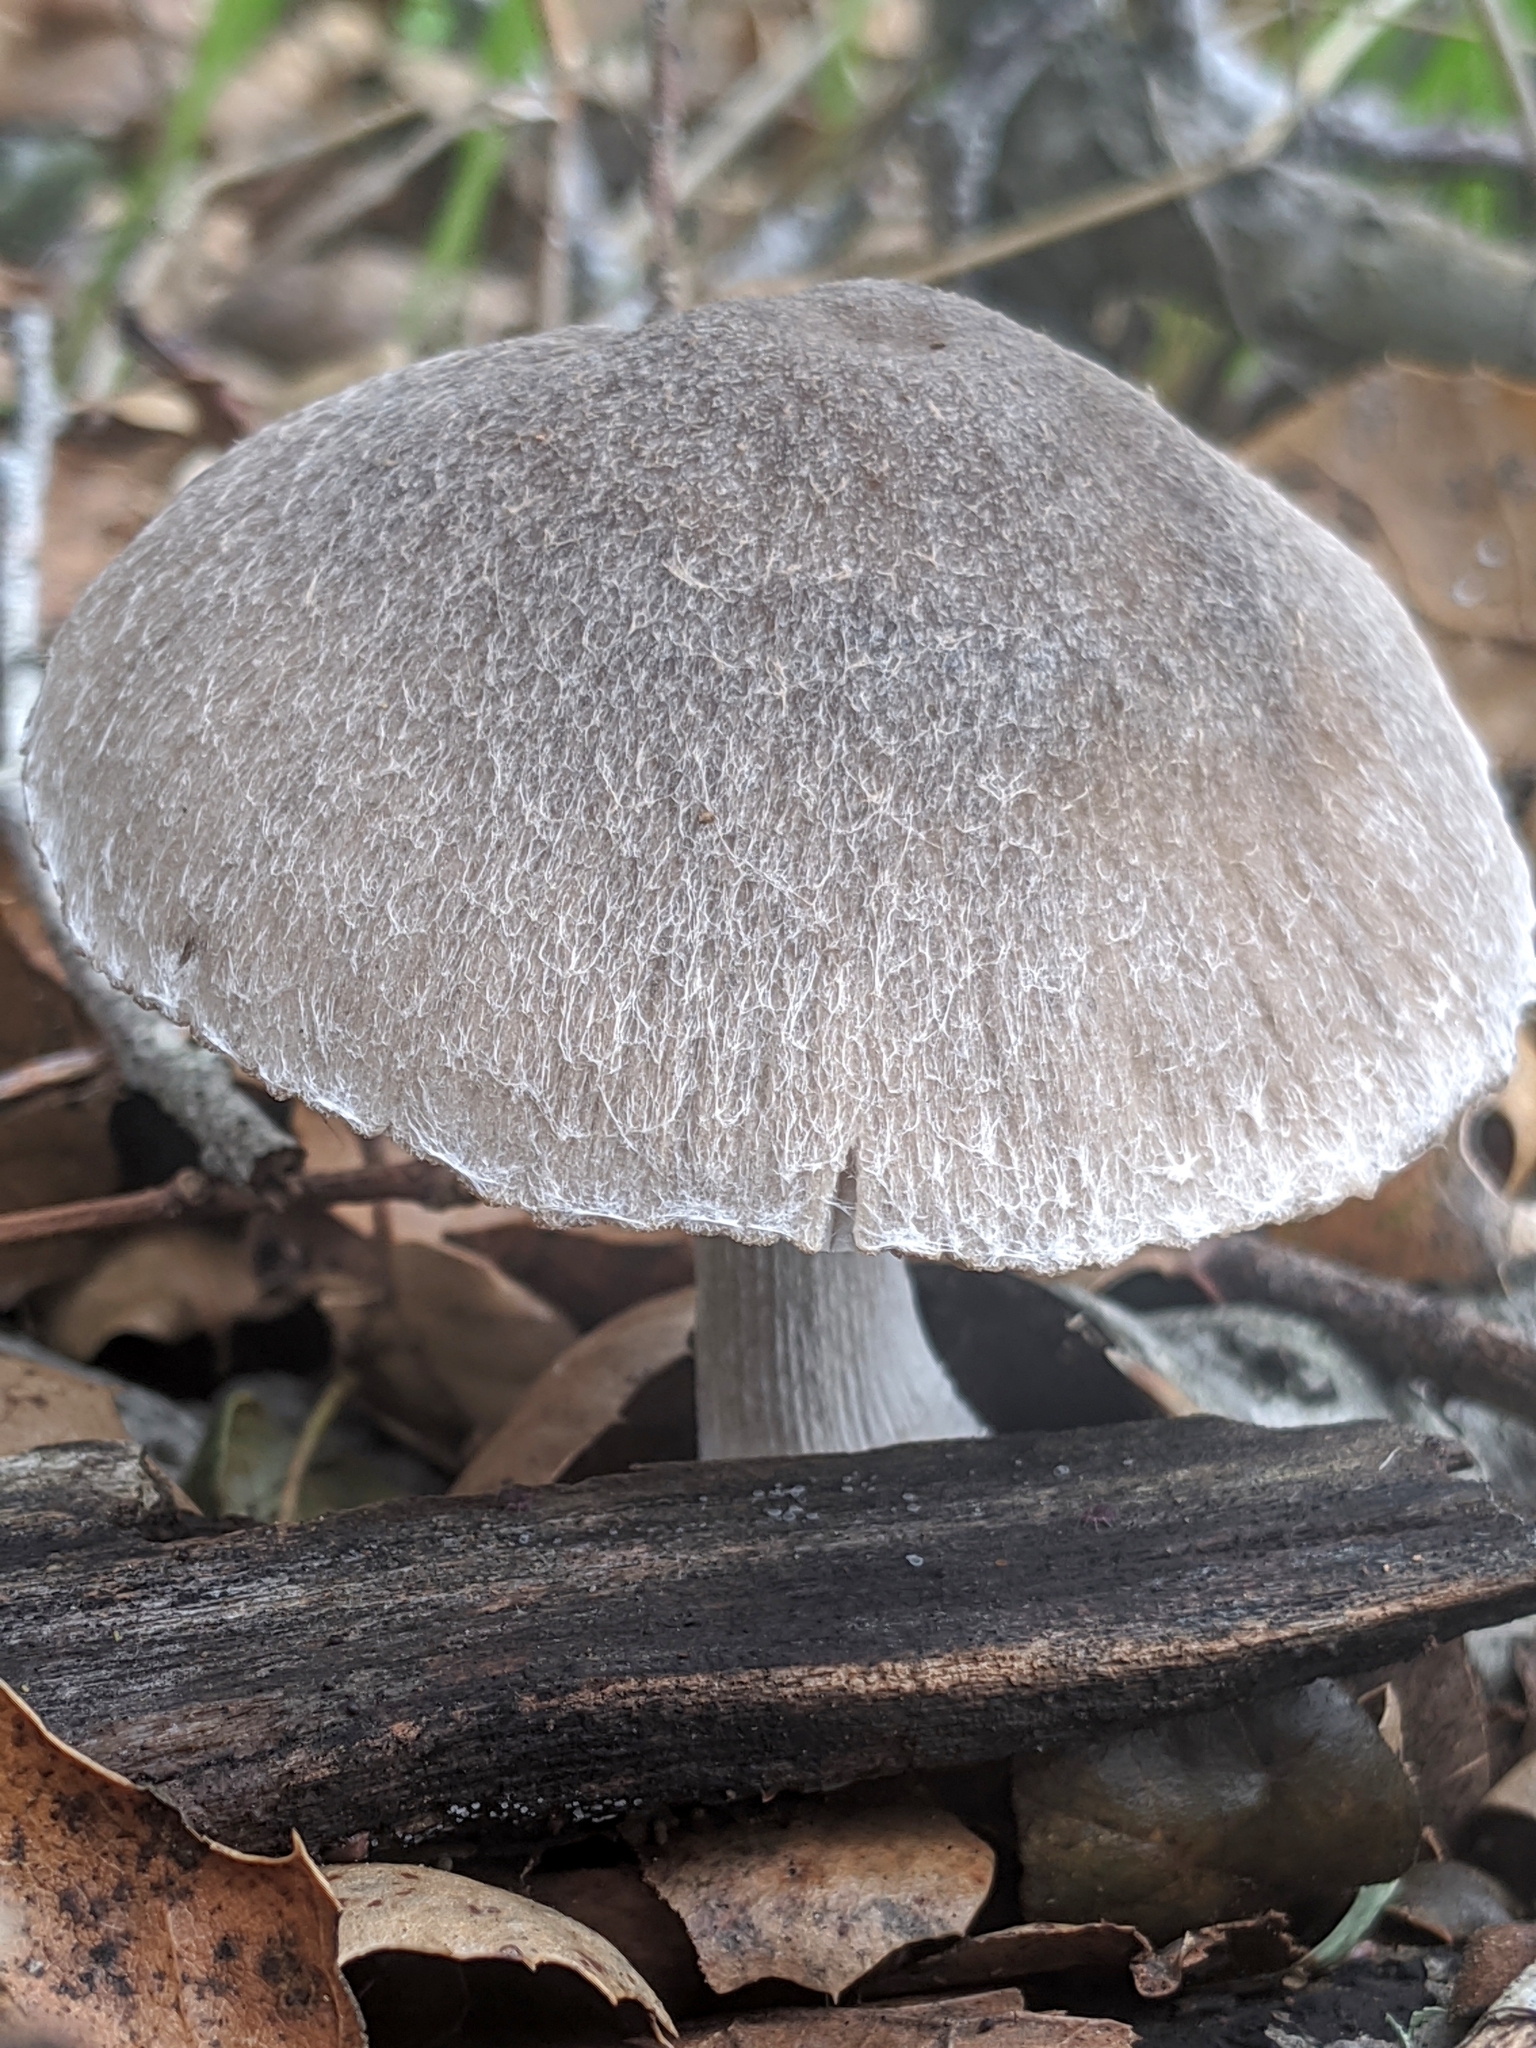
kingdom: Fungi
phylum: Basidiomycota
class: Agaricomycetes
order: Agaricales
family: Psathyrellaceae
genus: Psathyrella
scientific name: Psathyrella uliginicola
